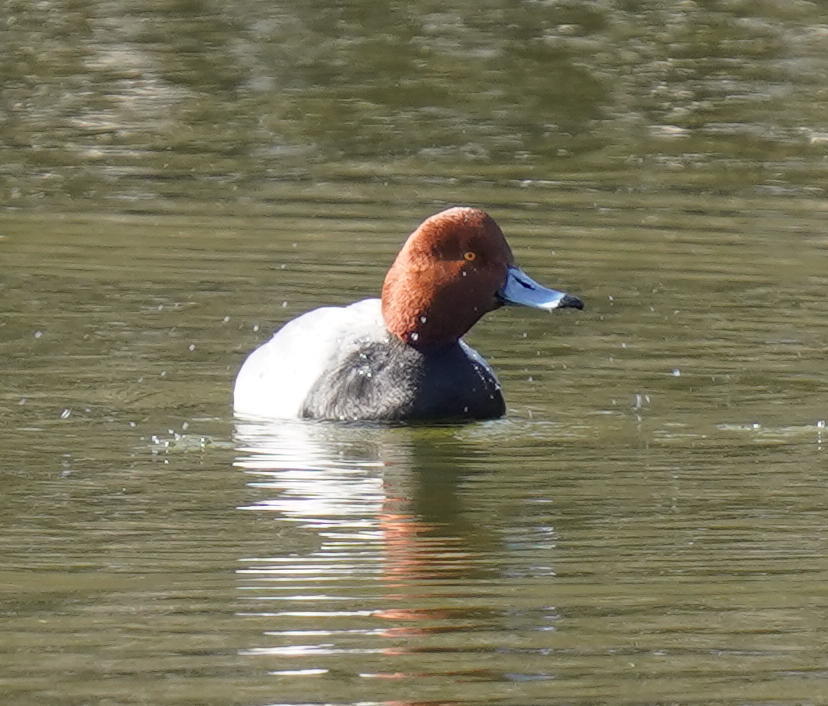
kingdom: Animalia
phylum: Chordata
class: Aves
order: Anseriformes
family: Anatidae
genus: Aythya
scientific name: Aythya americana
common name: Redhead
